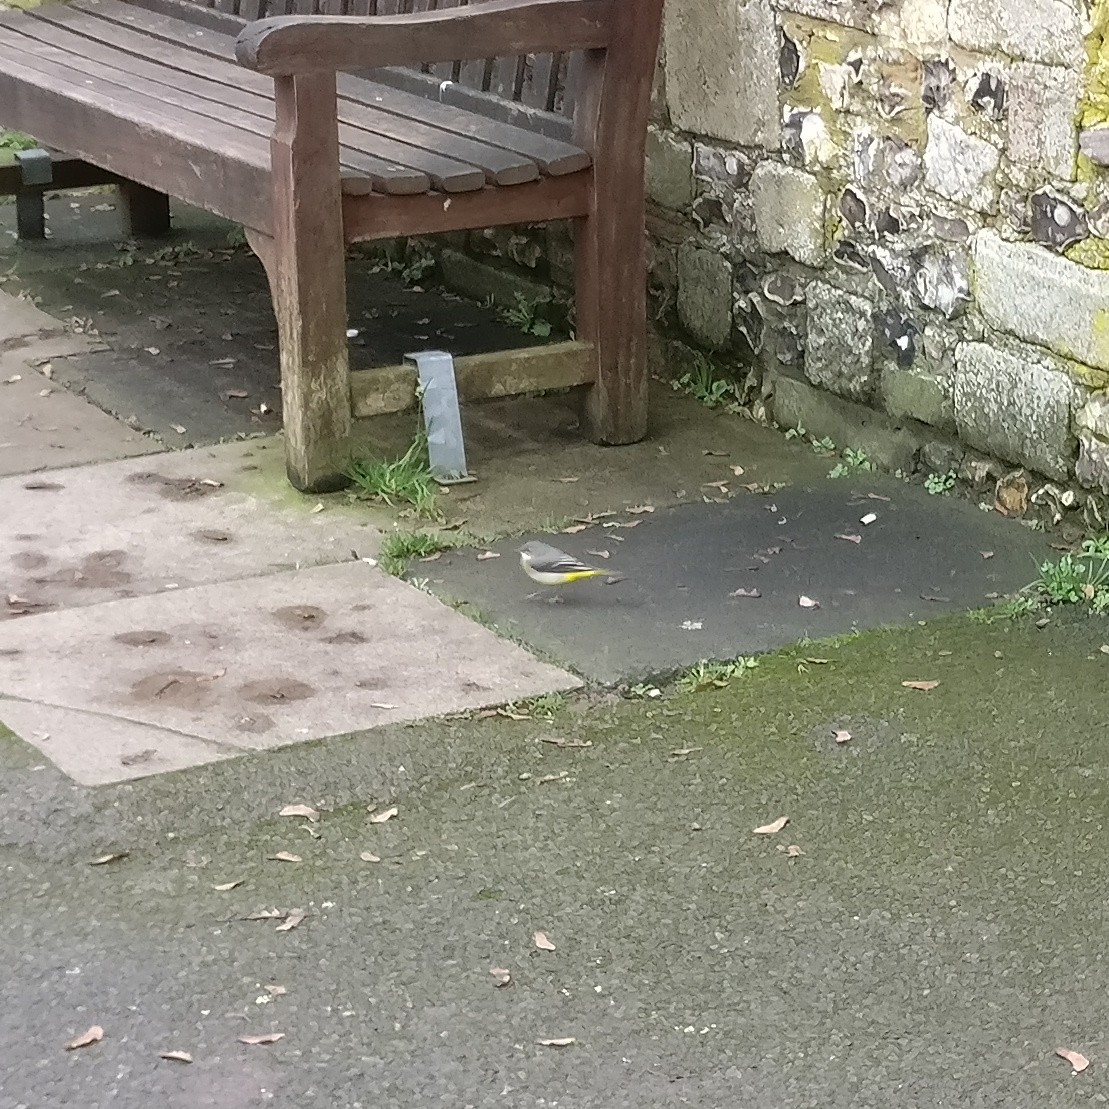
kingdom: Animalia
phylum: Chordata
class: Aves
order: Passeriformes
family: Motacillidae
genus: Motacilla
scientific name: Motacilla cinerea
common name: Grey wagtail
